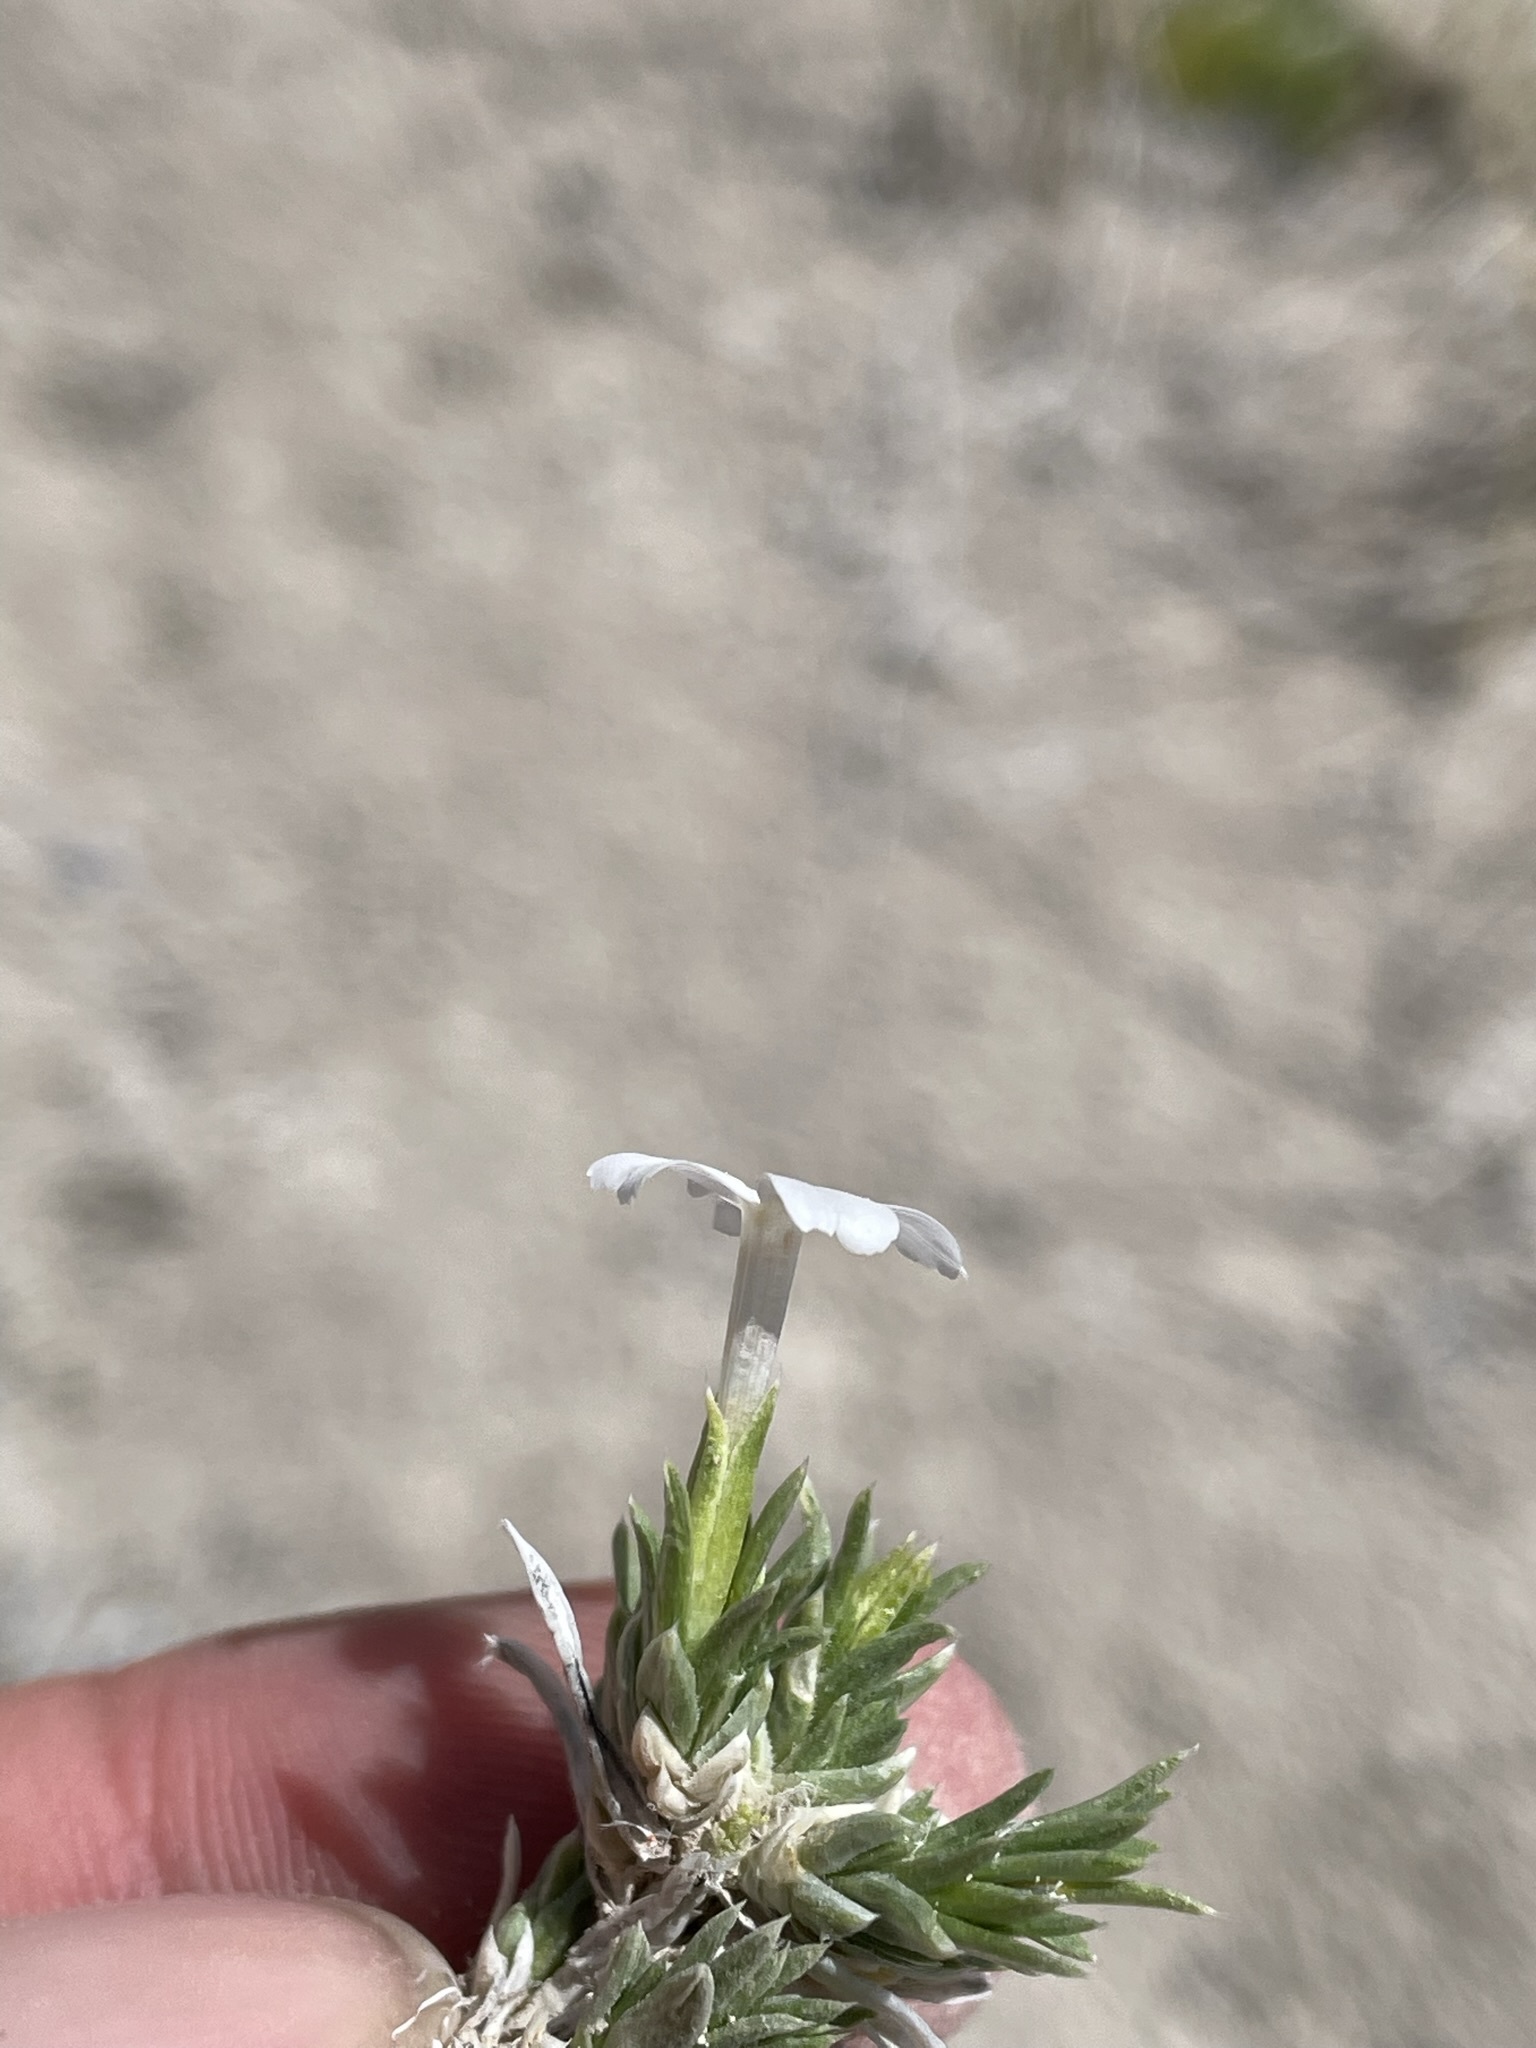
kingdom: Plantae
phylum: Tracheophyta
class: Magnoliopsida
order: Ericales
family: Polemoniaceae
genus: Phlox
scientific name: Phlox kelseyi
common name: Marsh phlox
